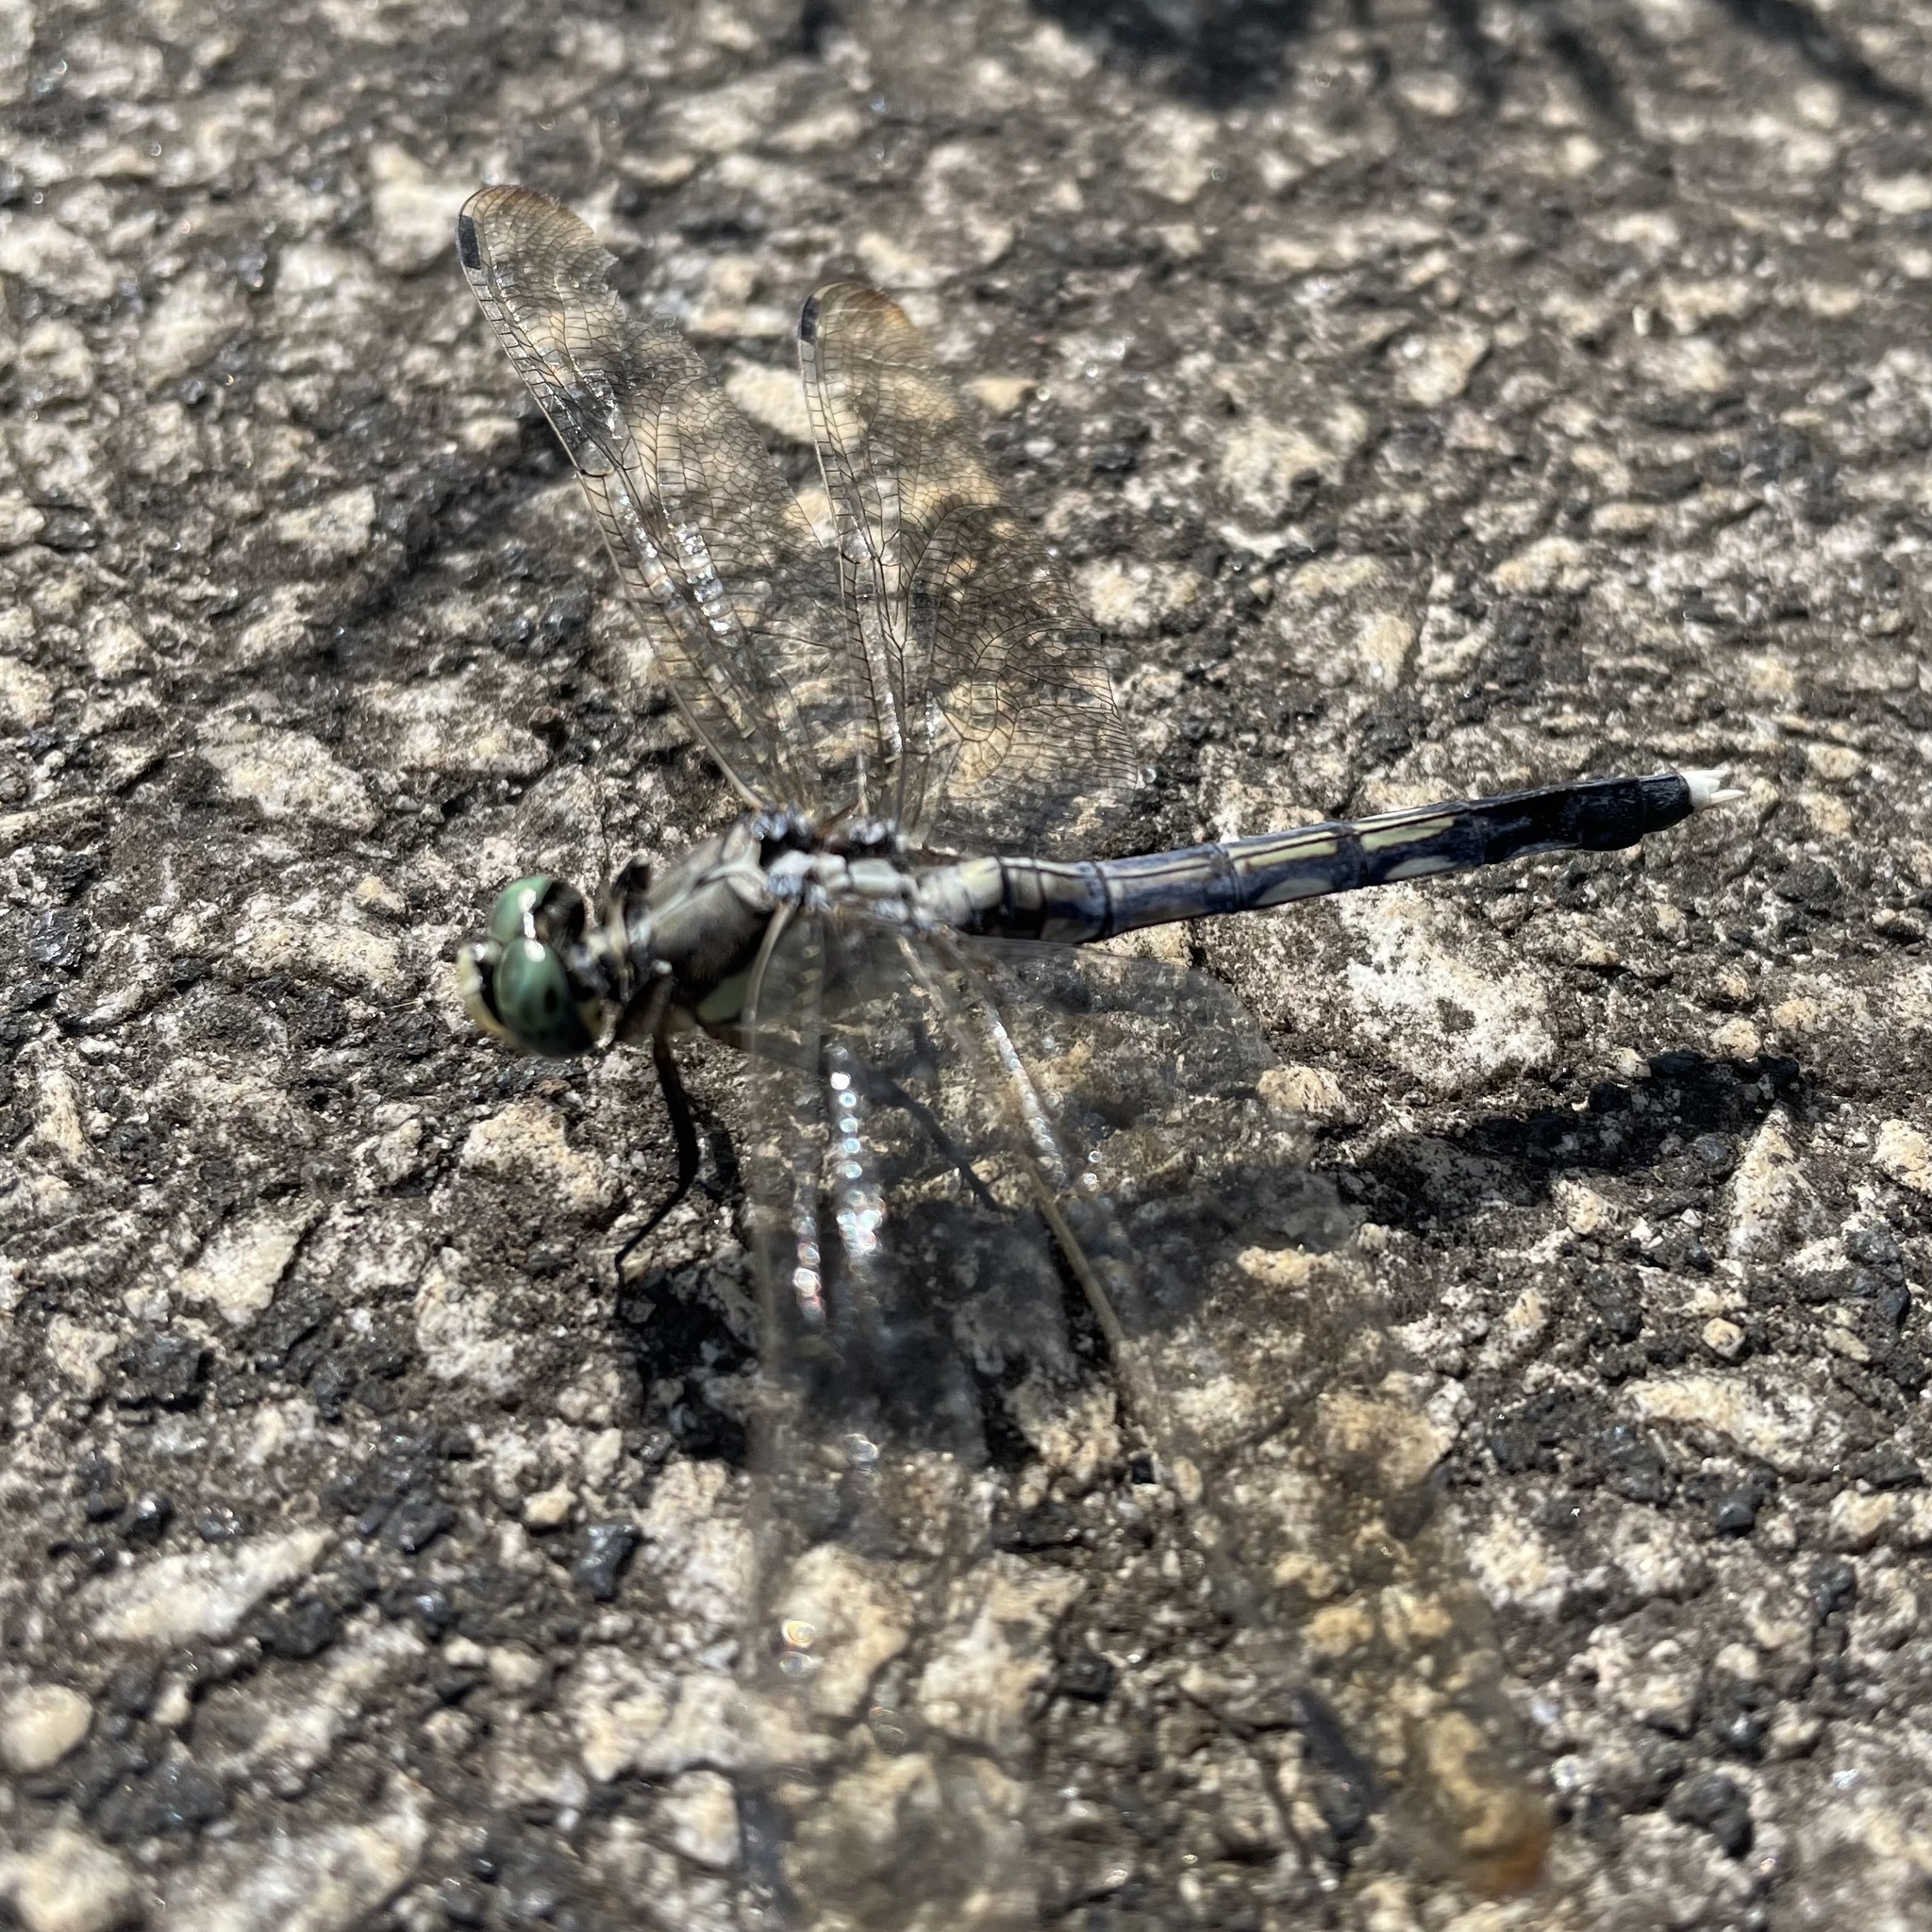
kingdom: Animalia
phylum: Arthropoda
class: Insecta
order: Odonata
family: Libellulidae
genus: Orthetrum
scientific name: Orthetrum albistylum
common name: White-tailed skimmer
